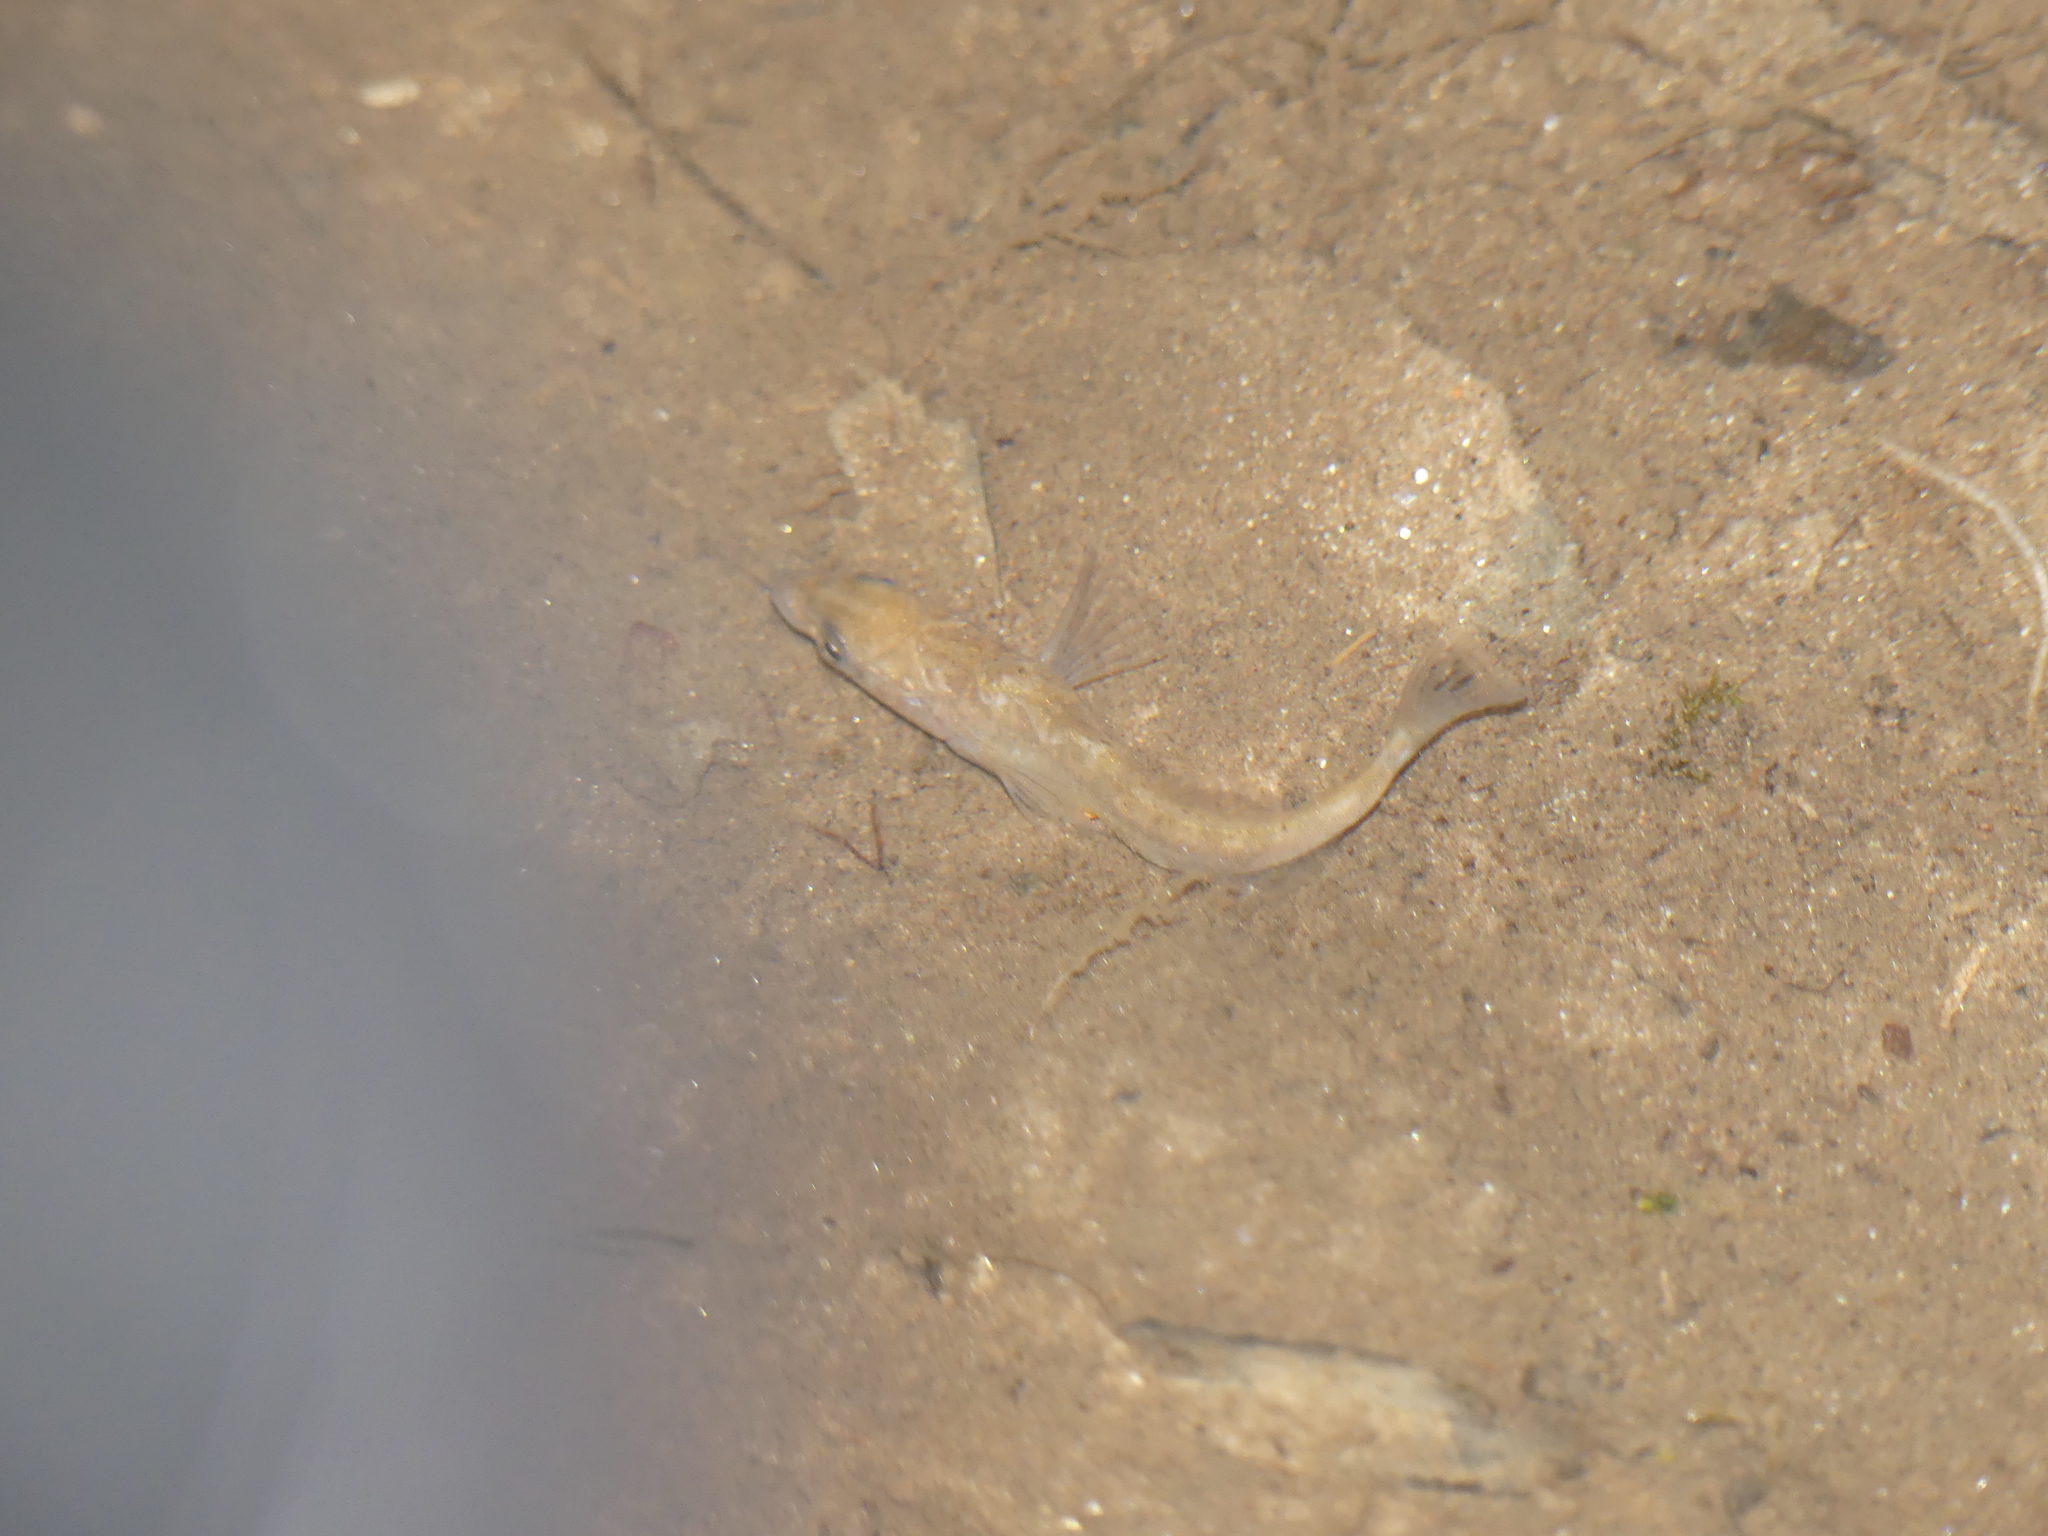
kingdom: Animalia
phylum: Chordata
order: Gasterosteiformes
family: Gasterosteidae
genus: Gasterosteus
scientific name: Gasterosteus aculeatus
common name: Three-spined stickleback
